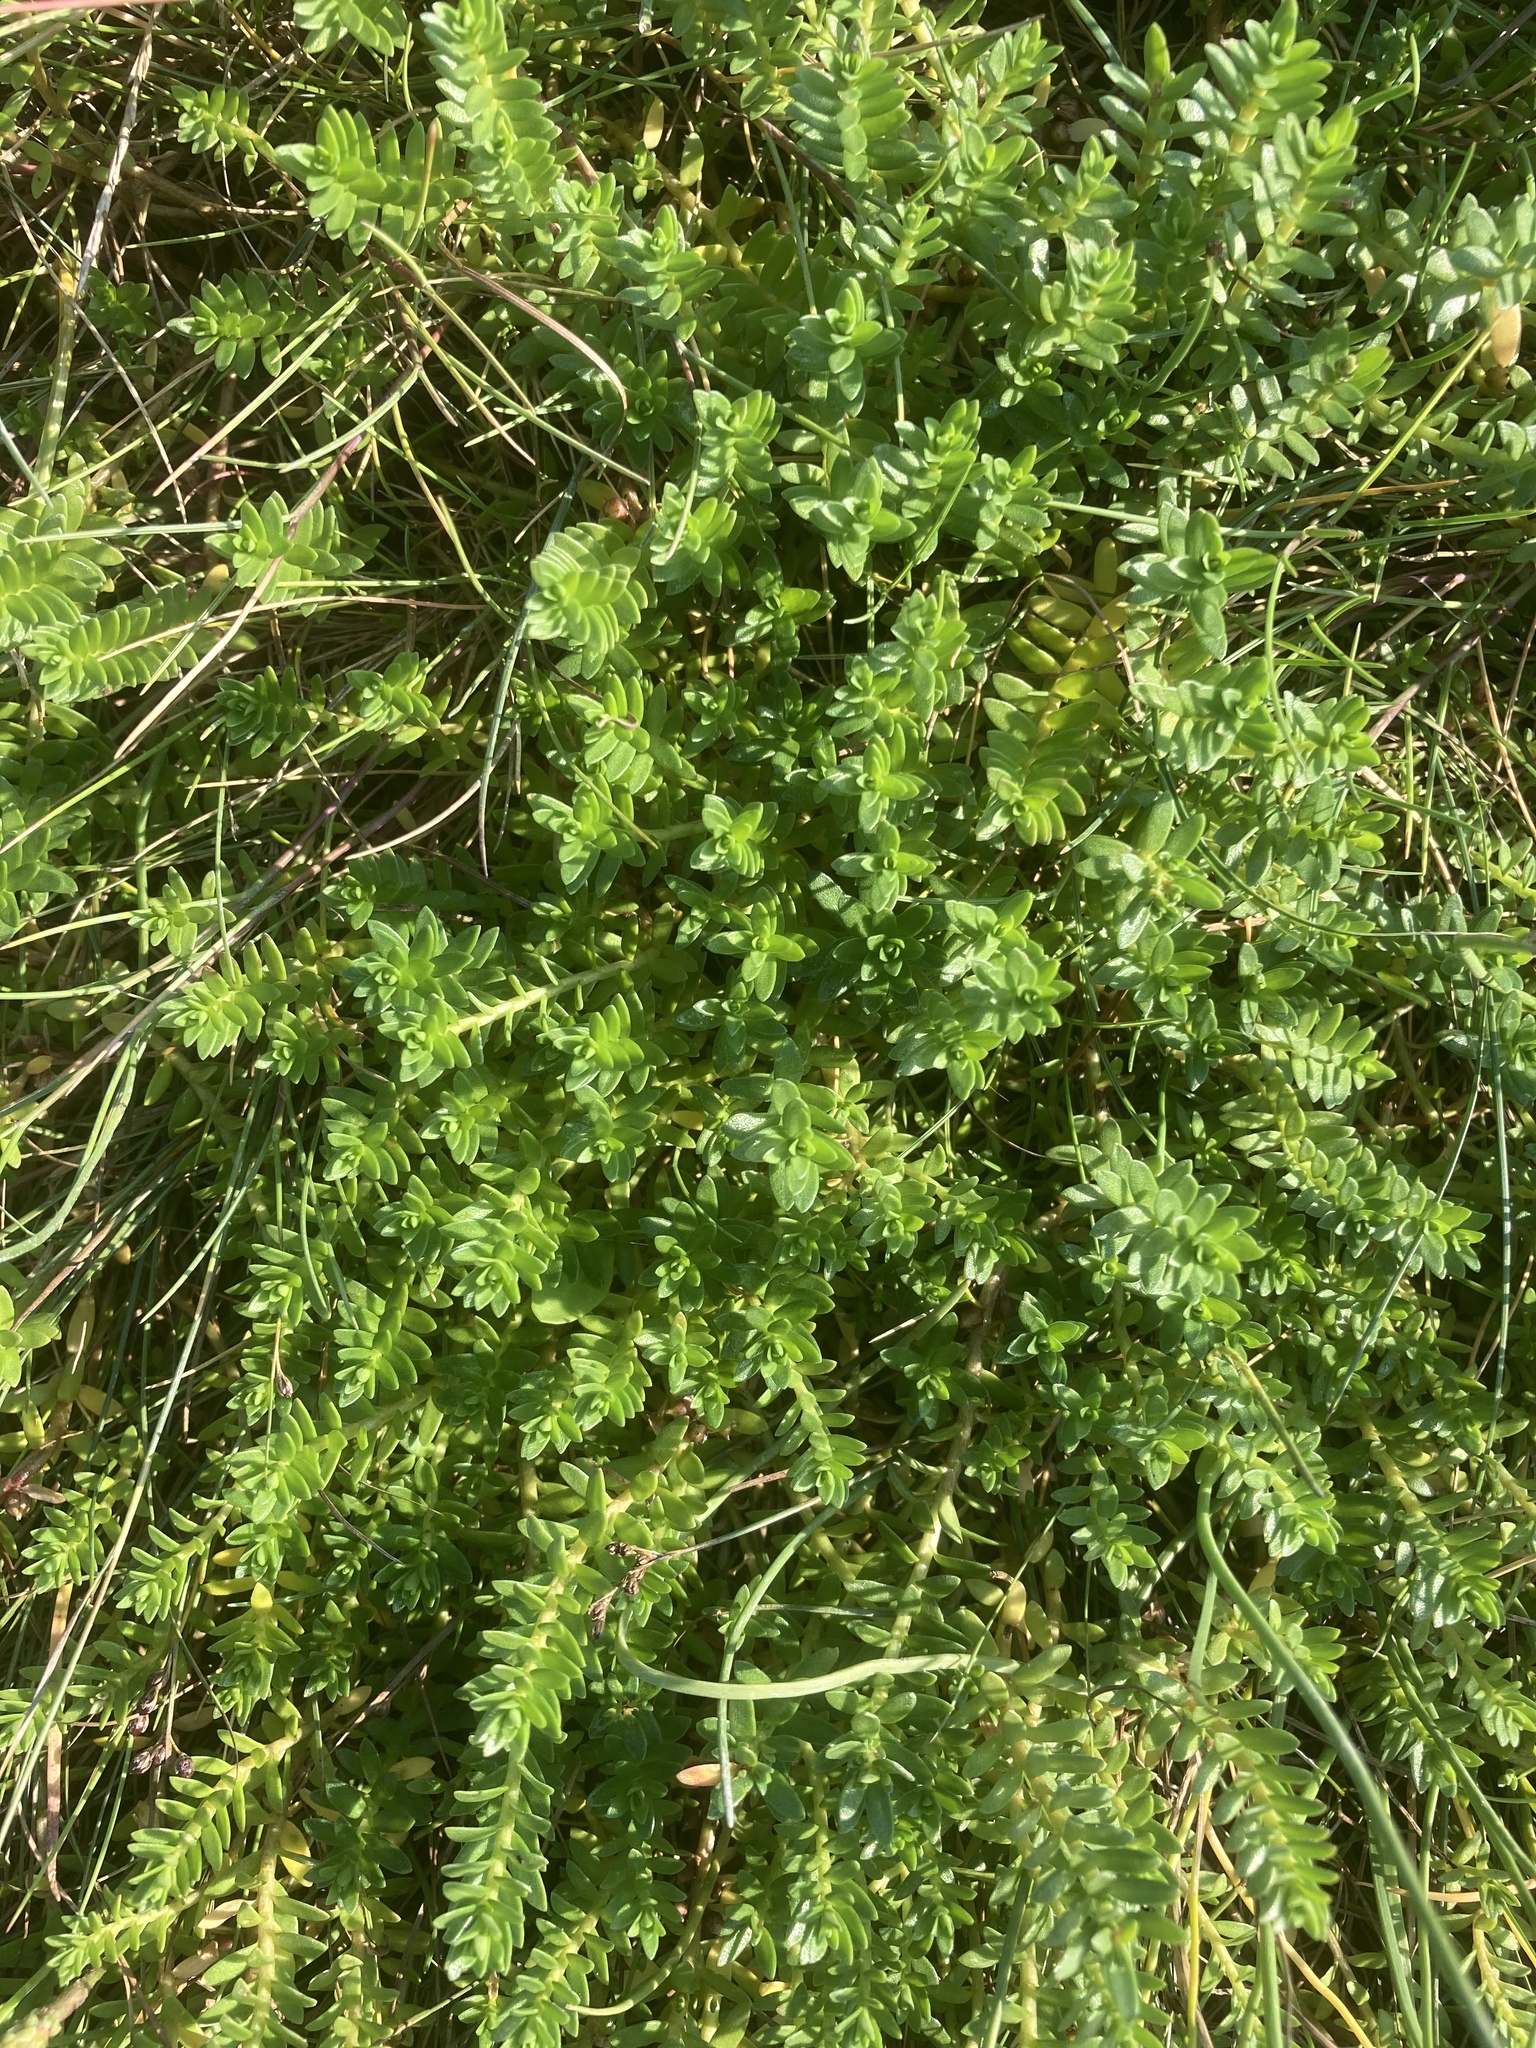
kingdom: Plantae
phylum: Tracheophyta
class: Magnoliopsida
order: Ericales
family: Primulaceae
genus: Lysimachia
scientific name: Lysimachia maritima
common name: Sea milkwort
